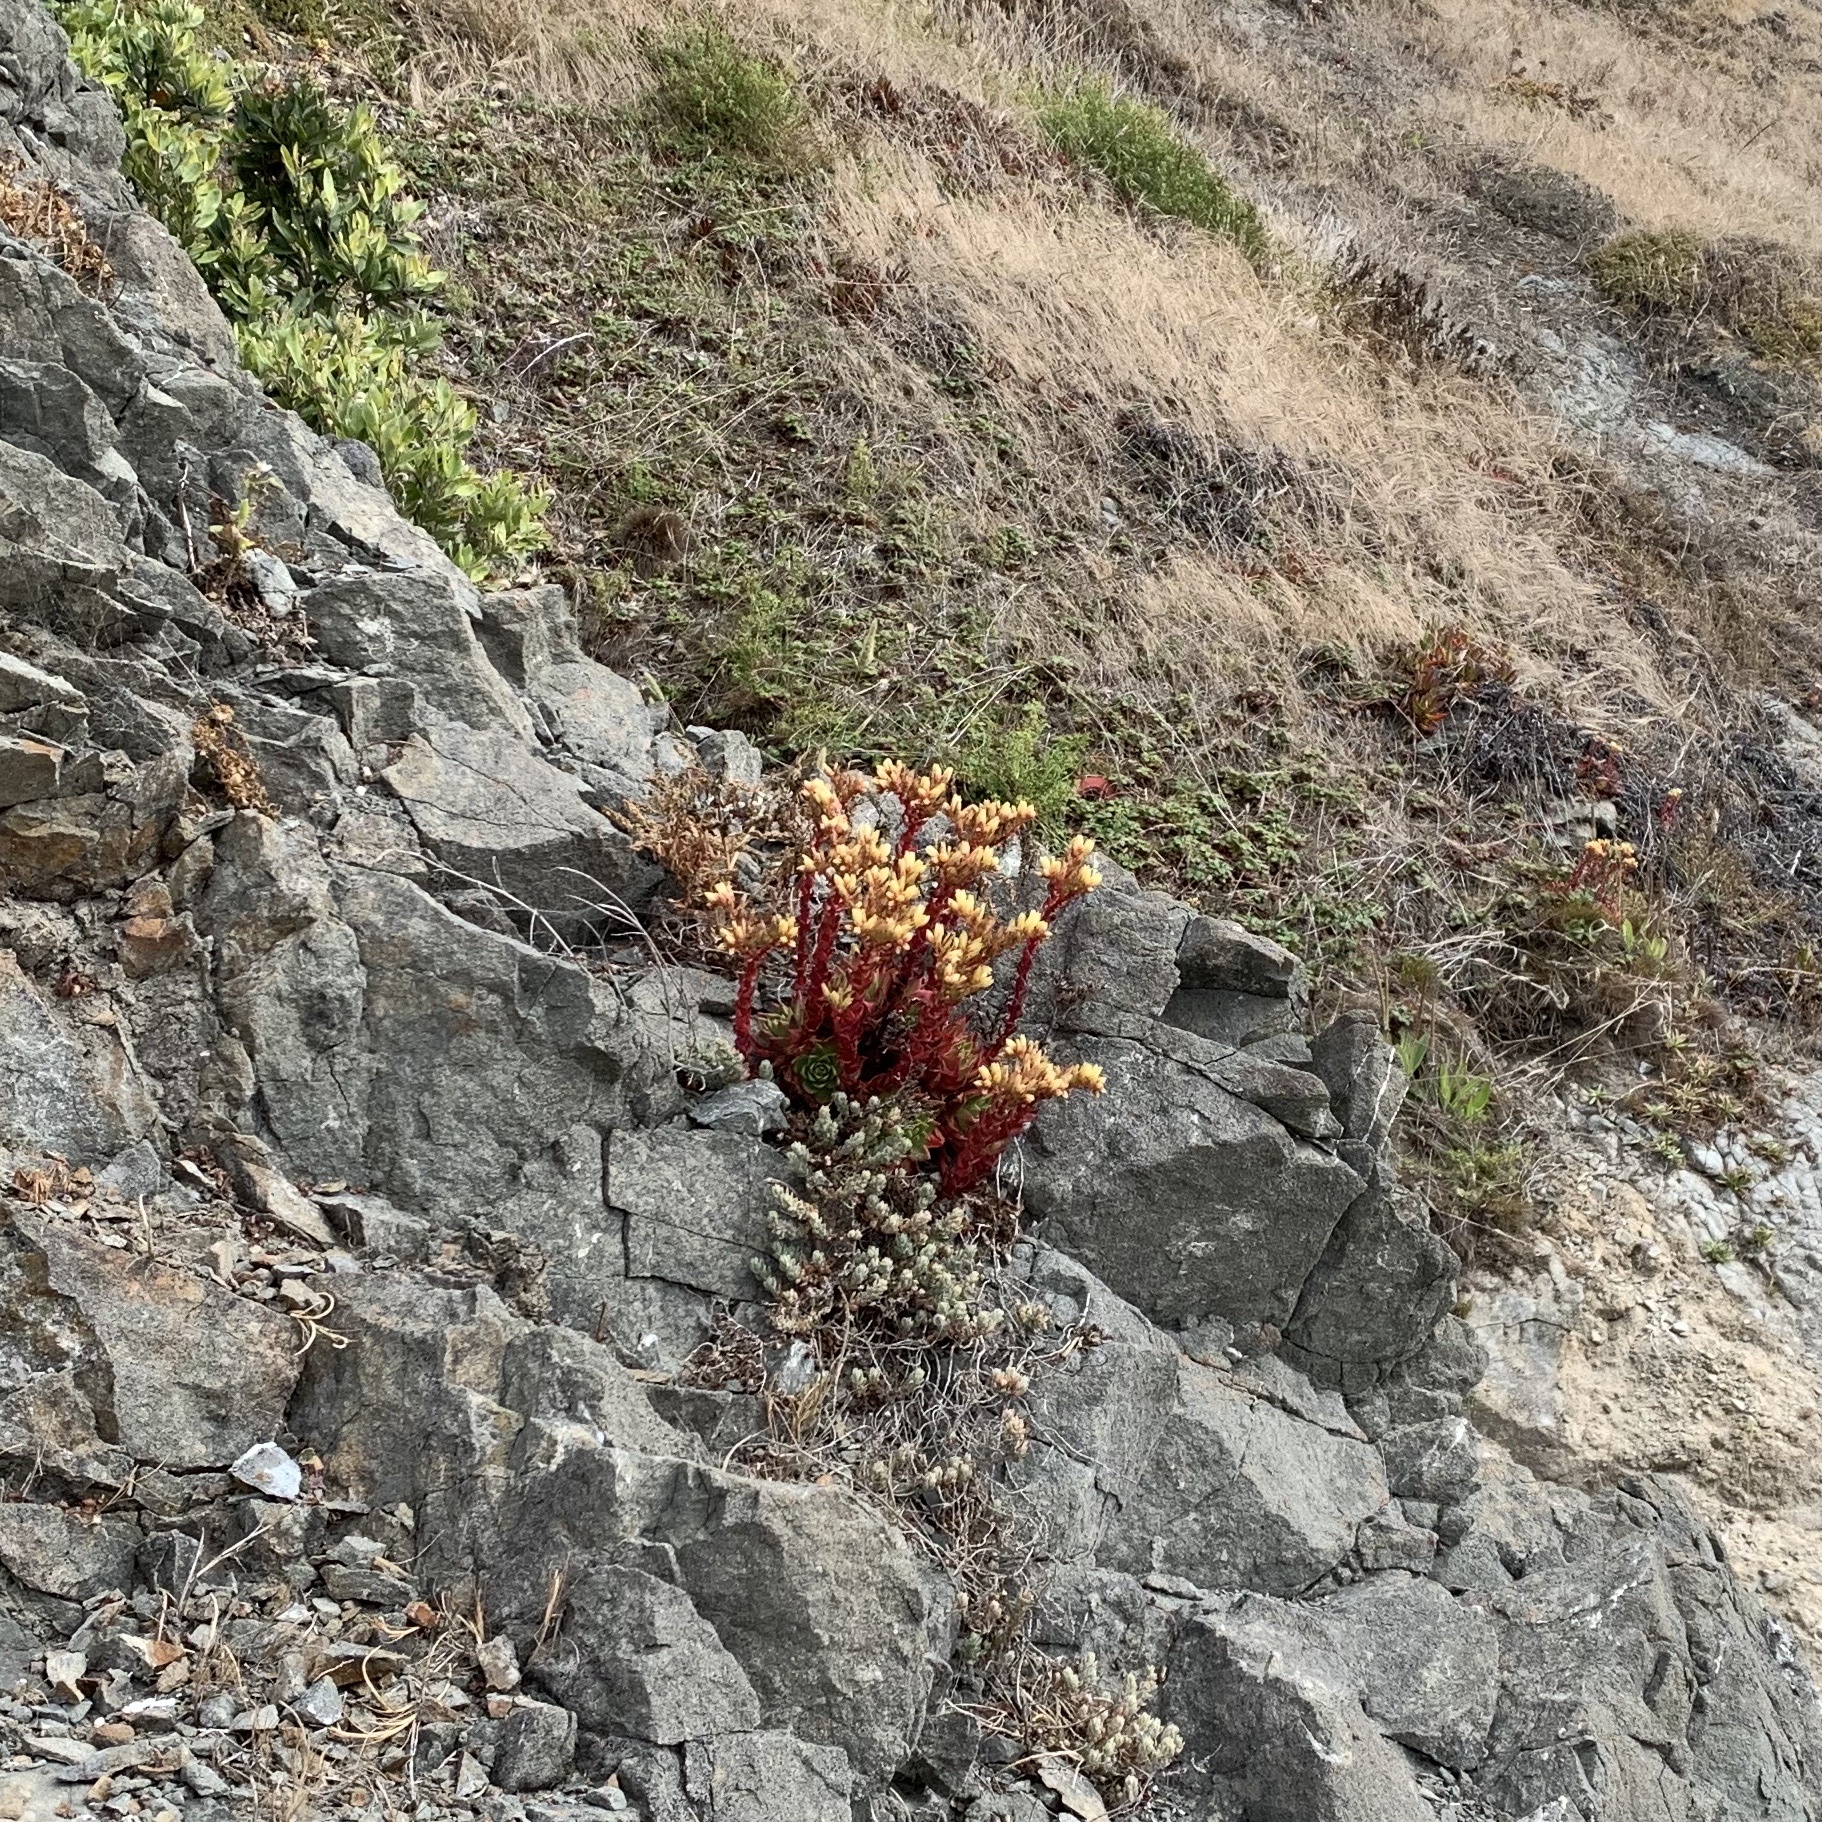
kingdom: Plantae
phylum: Tracheophyta
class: Magnoliopsida
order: Saxifragales
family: Crassulaceae
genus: Dudleya
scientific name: Dudleya farinosa
